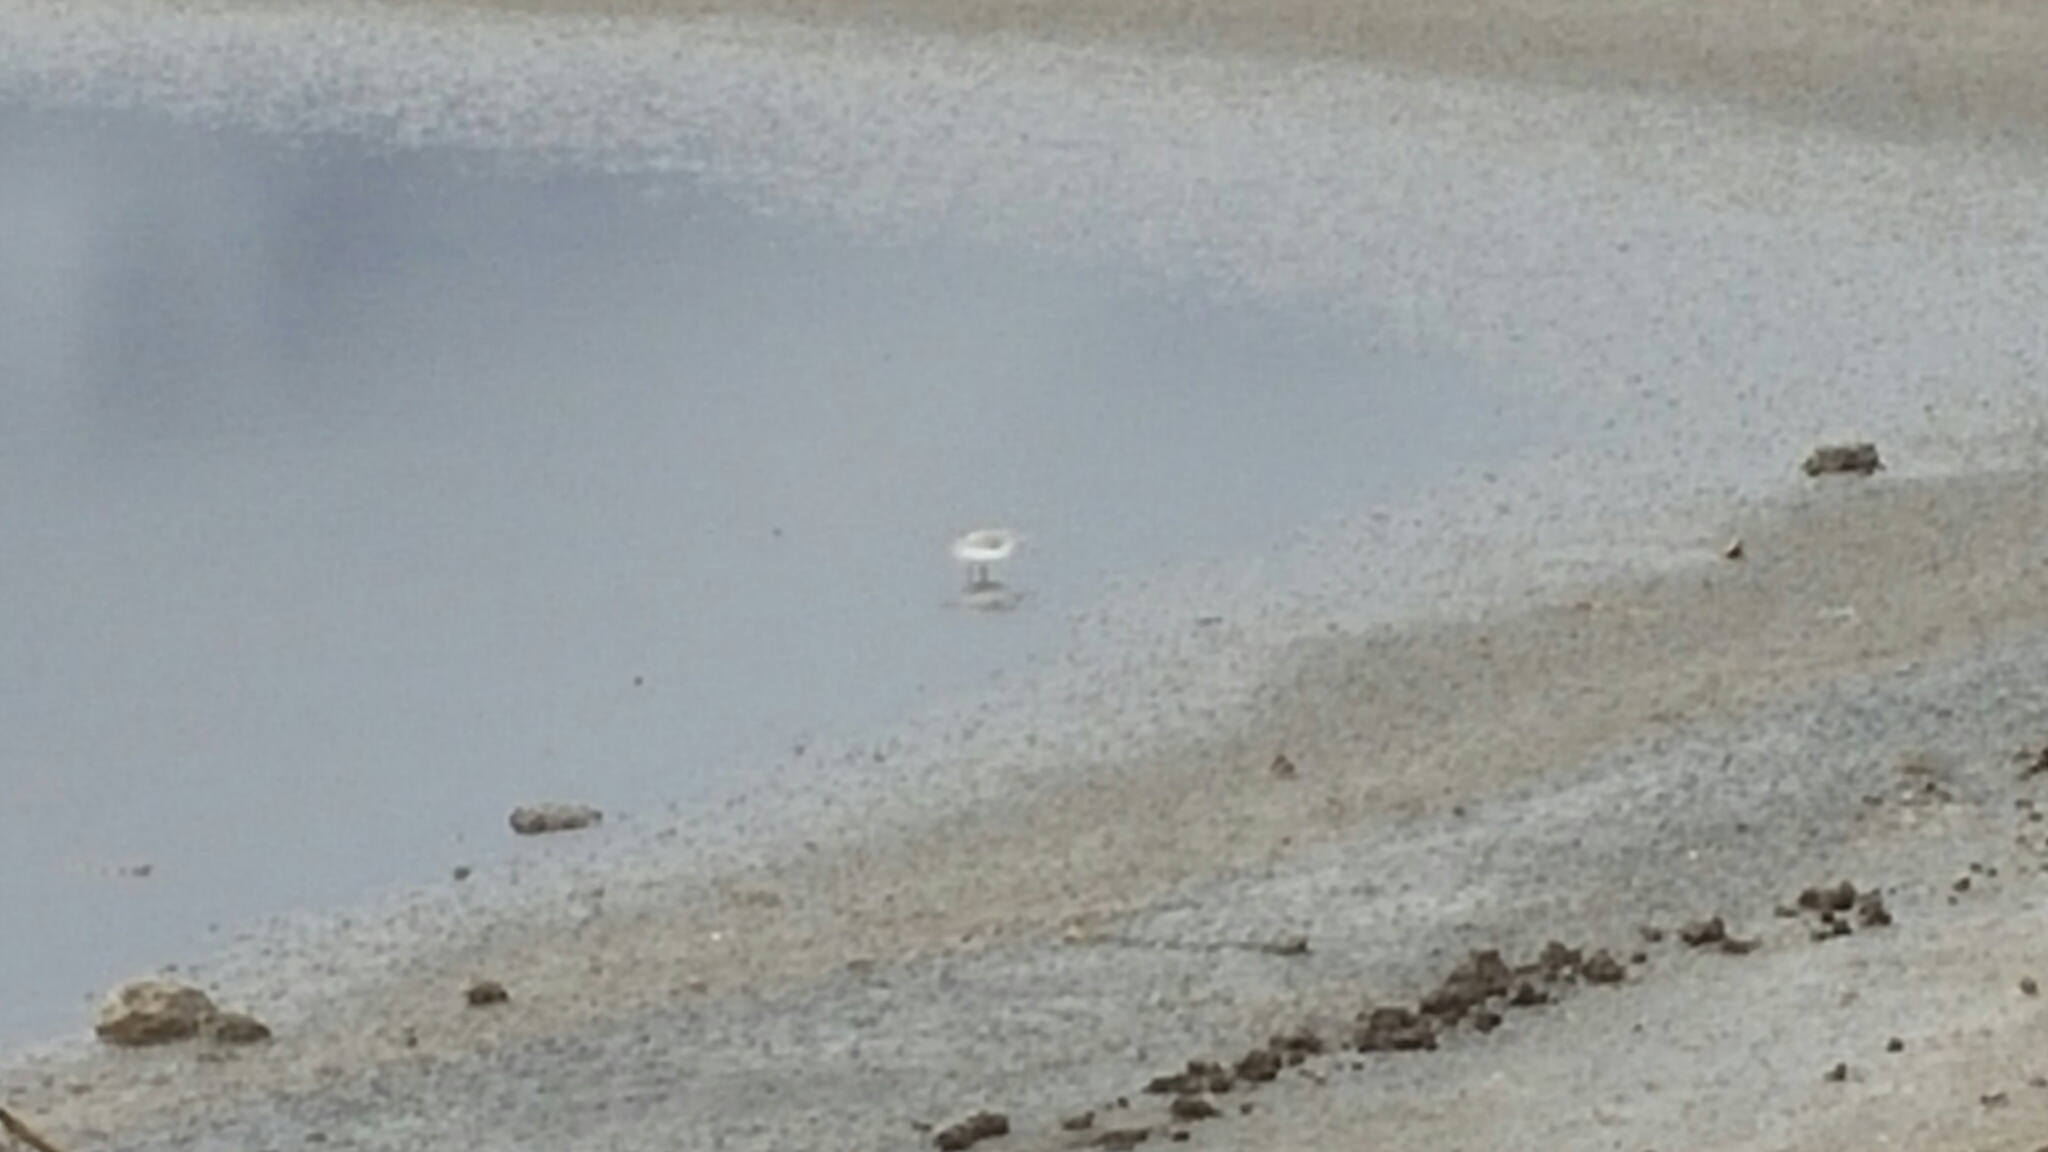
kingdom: Animalia
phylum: Chordata
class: Aves
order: Charadriiformes
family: Scolopacidae
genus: Calidris
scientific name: Calidris alba
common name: Sanderling
